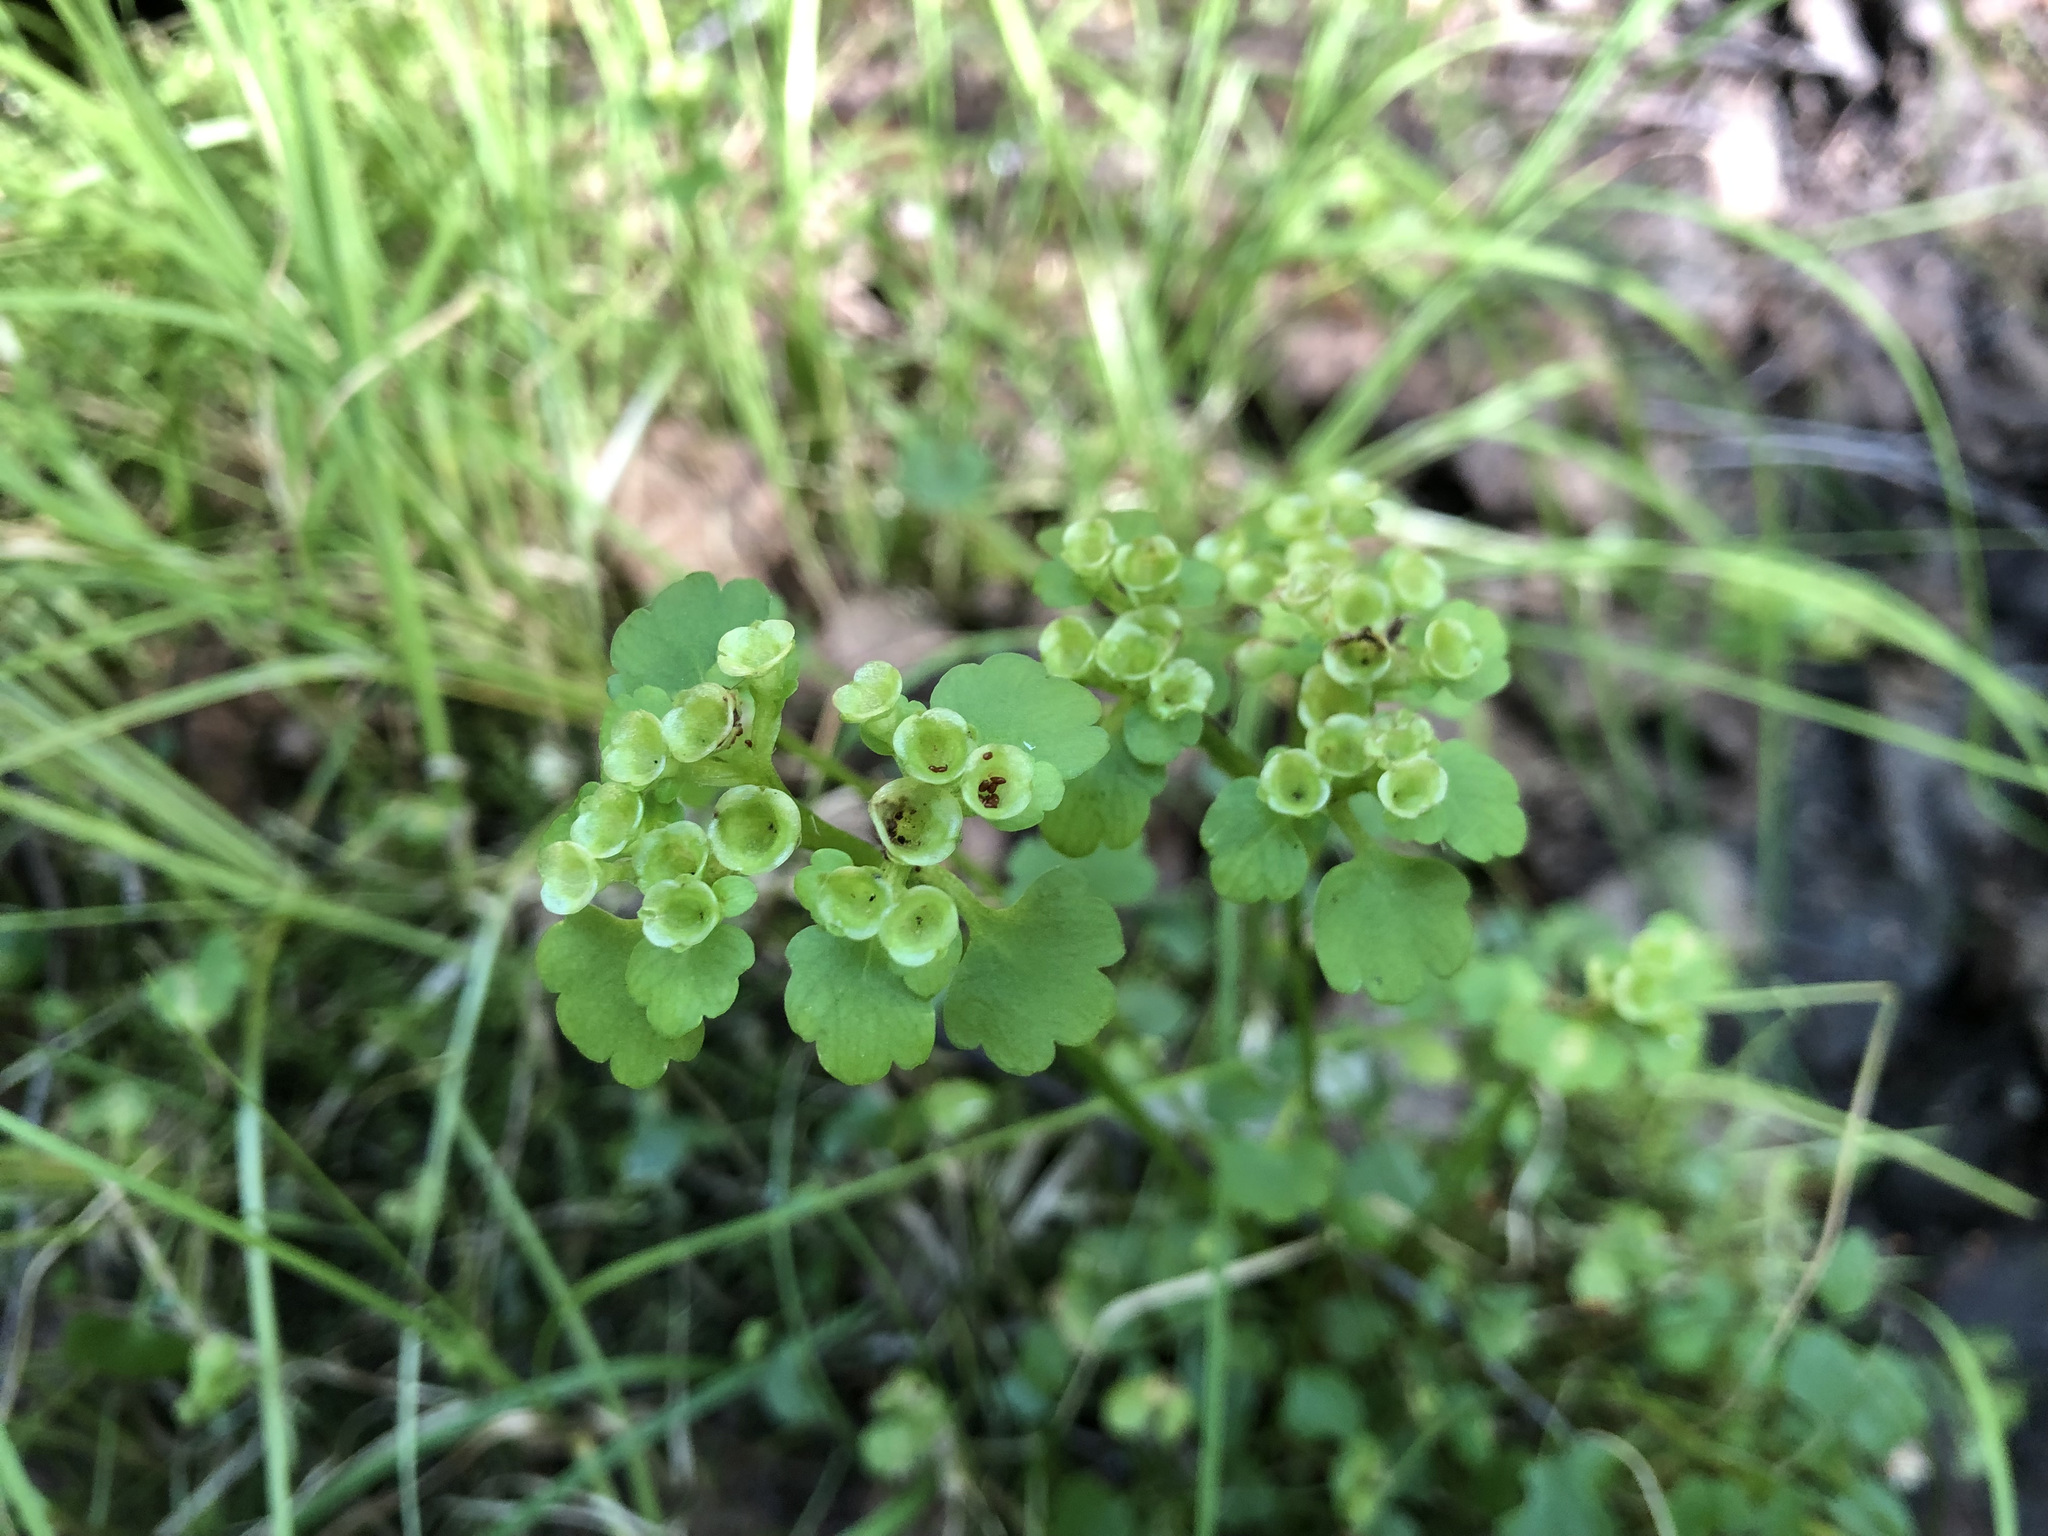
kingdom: Plantae
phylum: Tracheophyta
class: Magnoliopsida
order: Saxifragales
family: Saxifragaceae
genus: Chrysosplenium
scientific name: Chrysosplenium tetrandrum
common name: Green saxifrage
